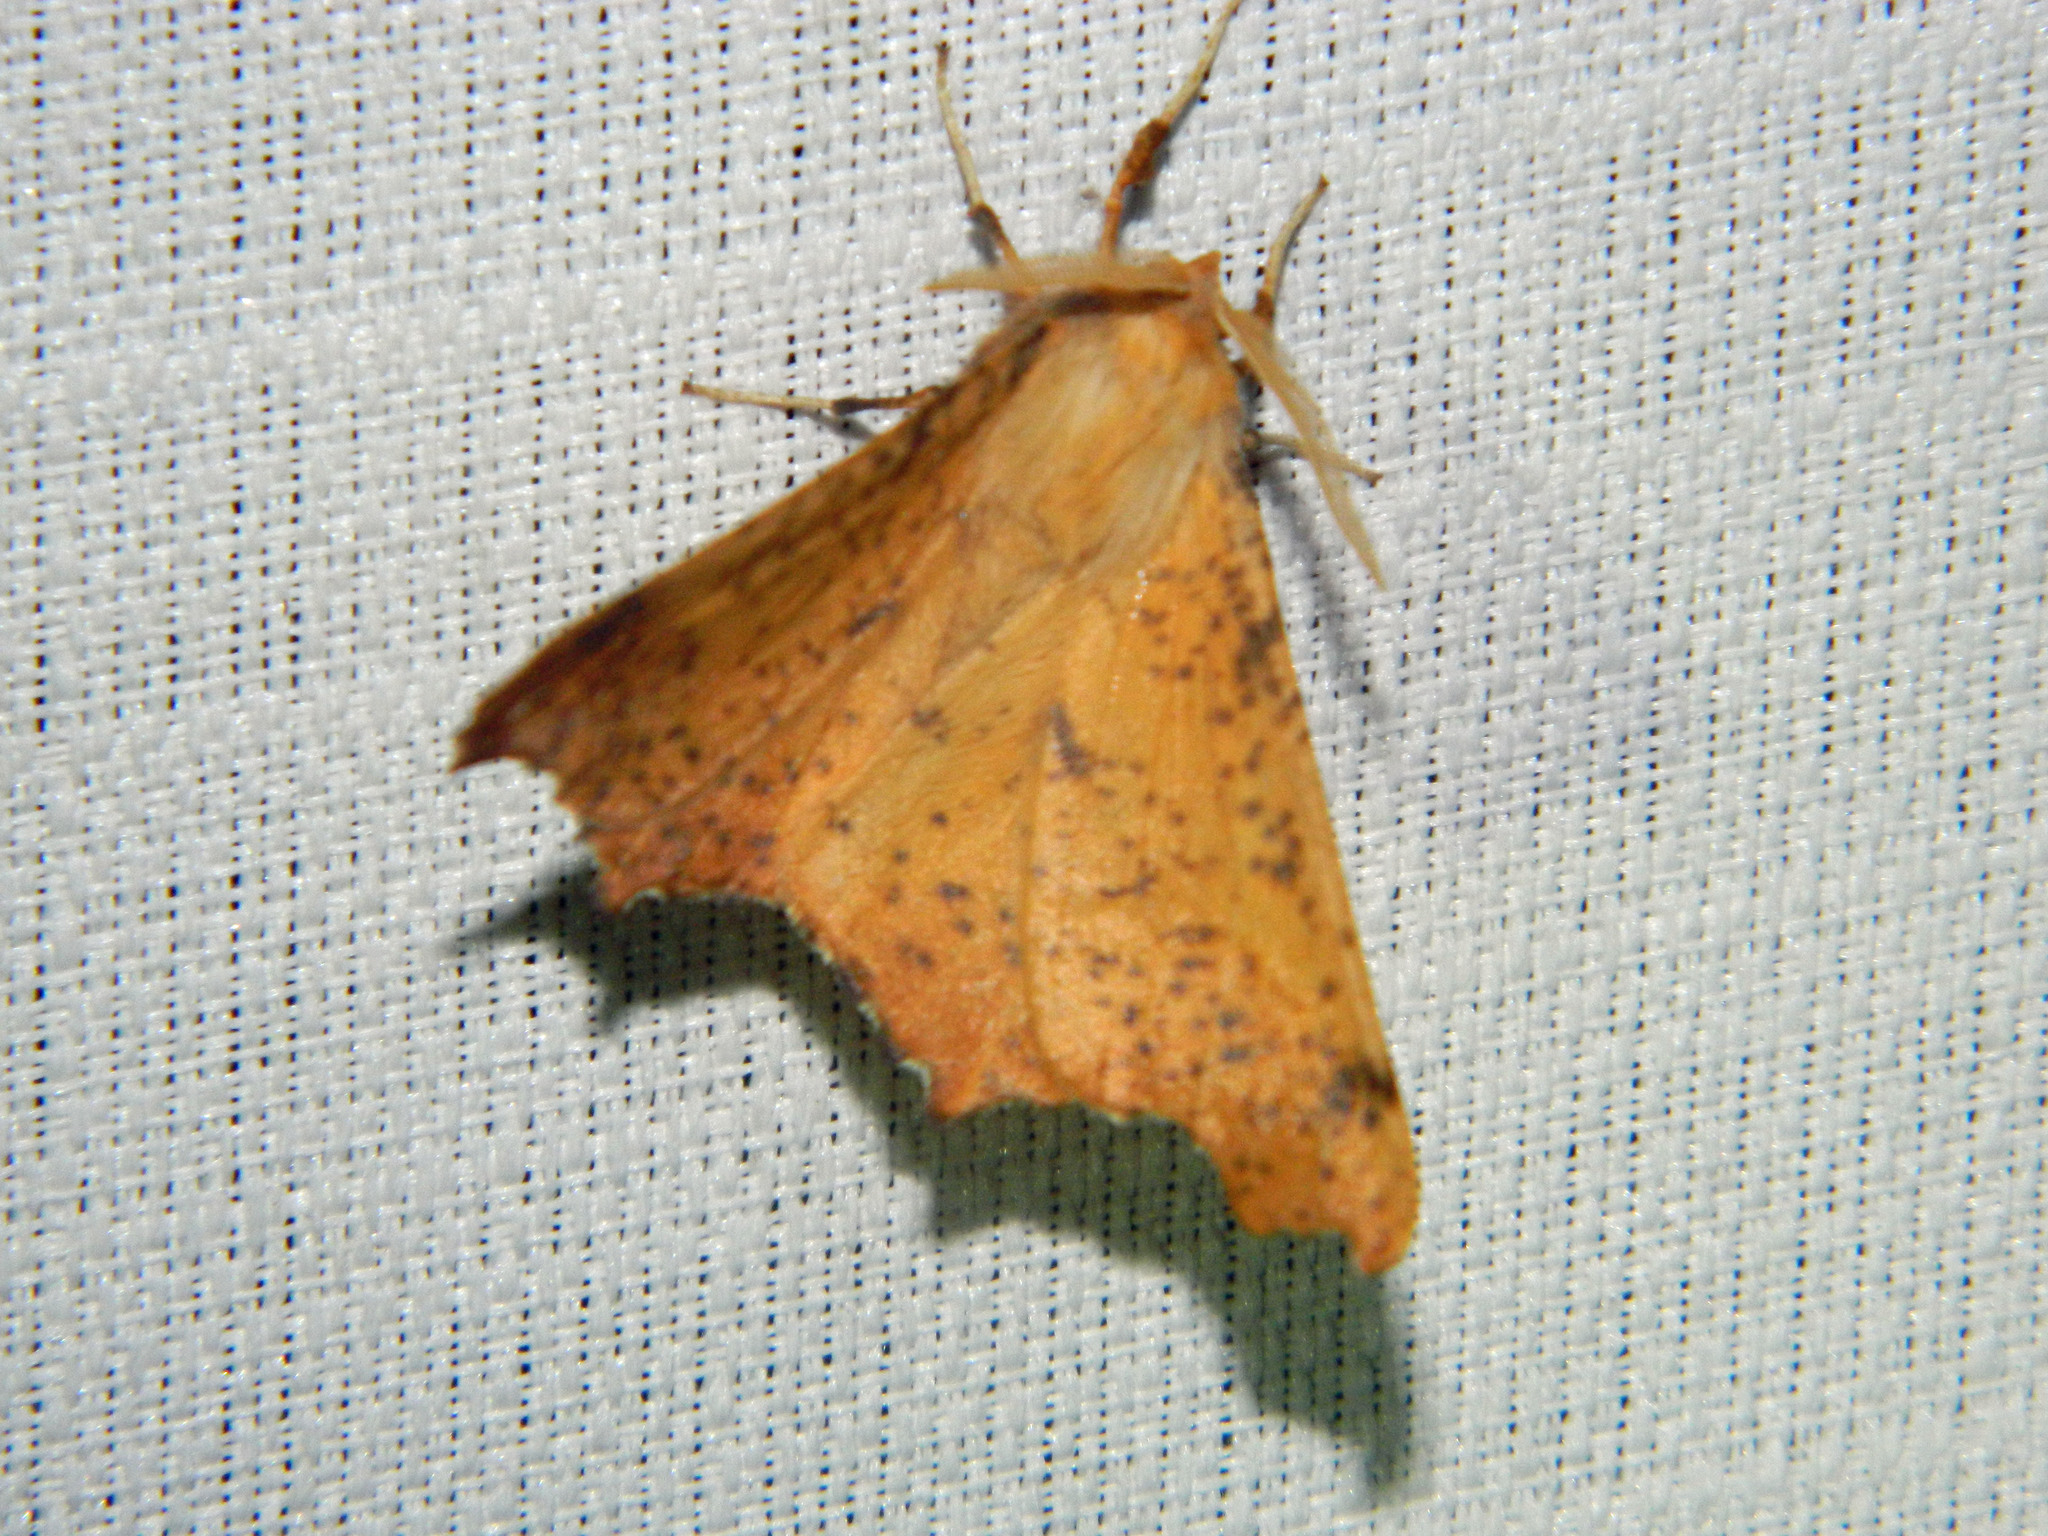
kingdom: Animalia
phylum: Arthropoda
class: Insecta
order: Lepidoptera
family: Geometridae
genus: Ennomos
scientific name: Ennomos magnaria
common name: Maple spanworm
